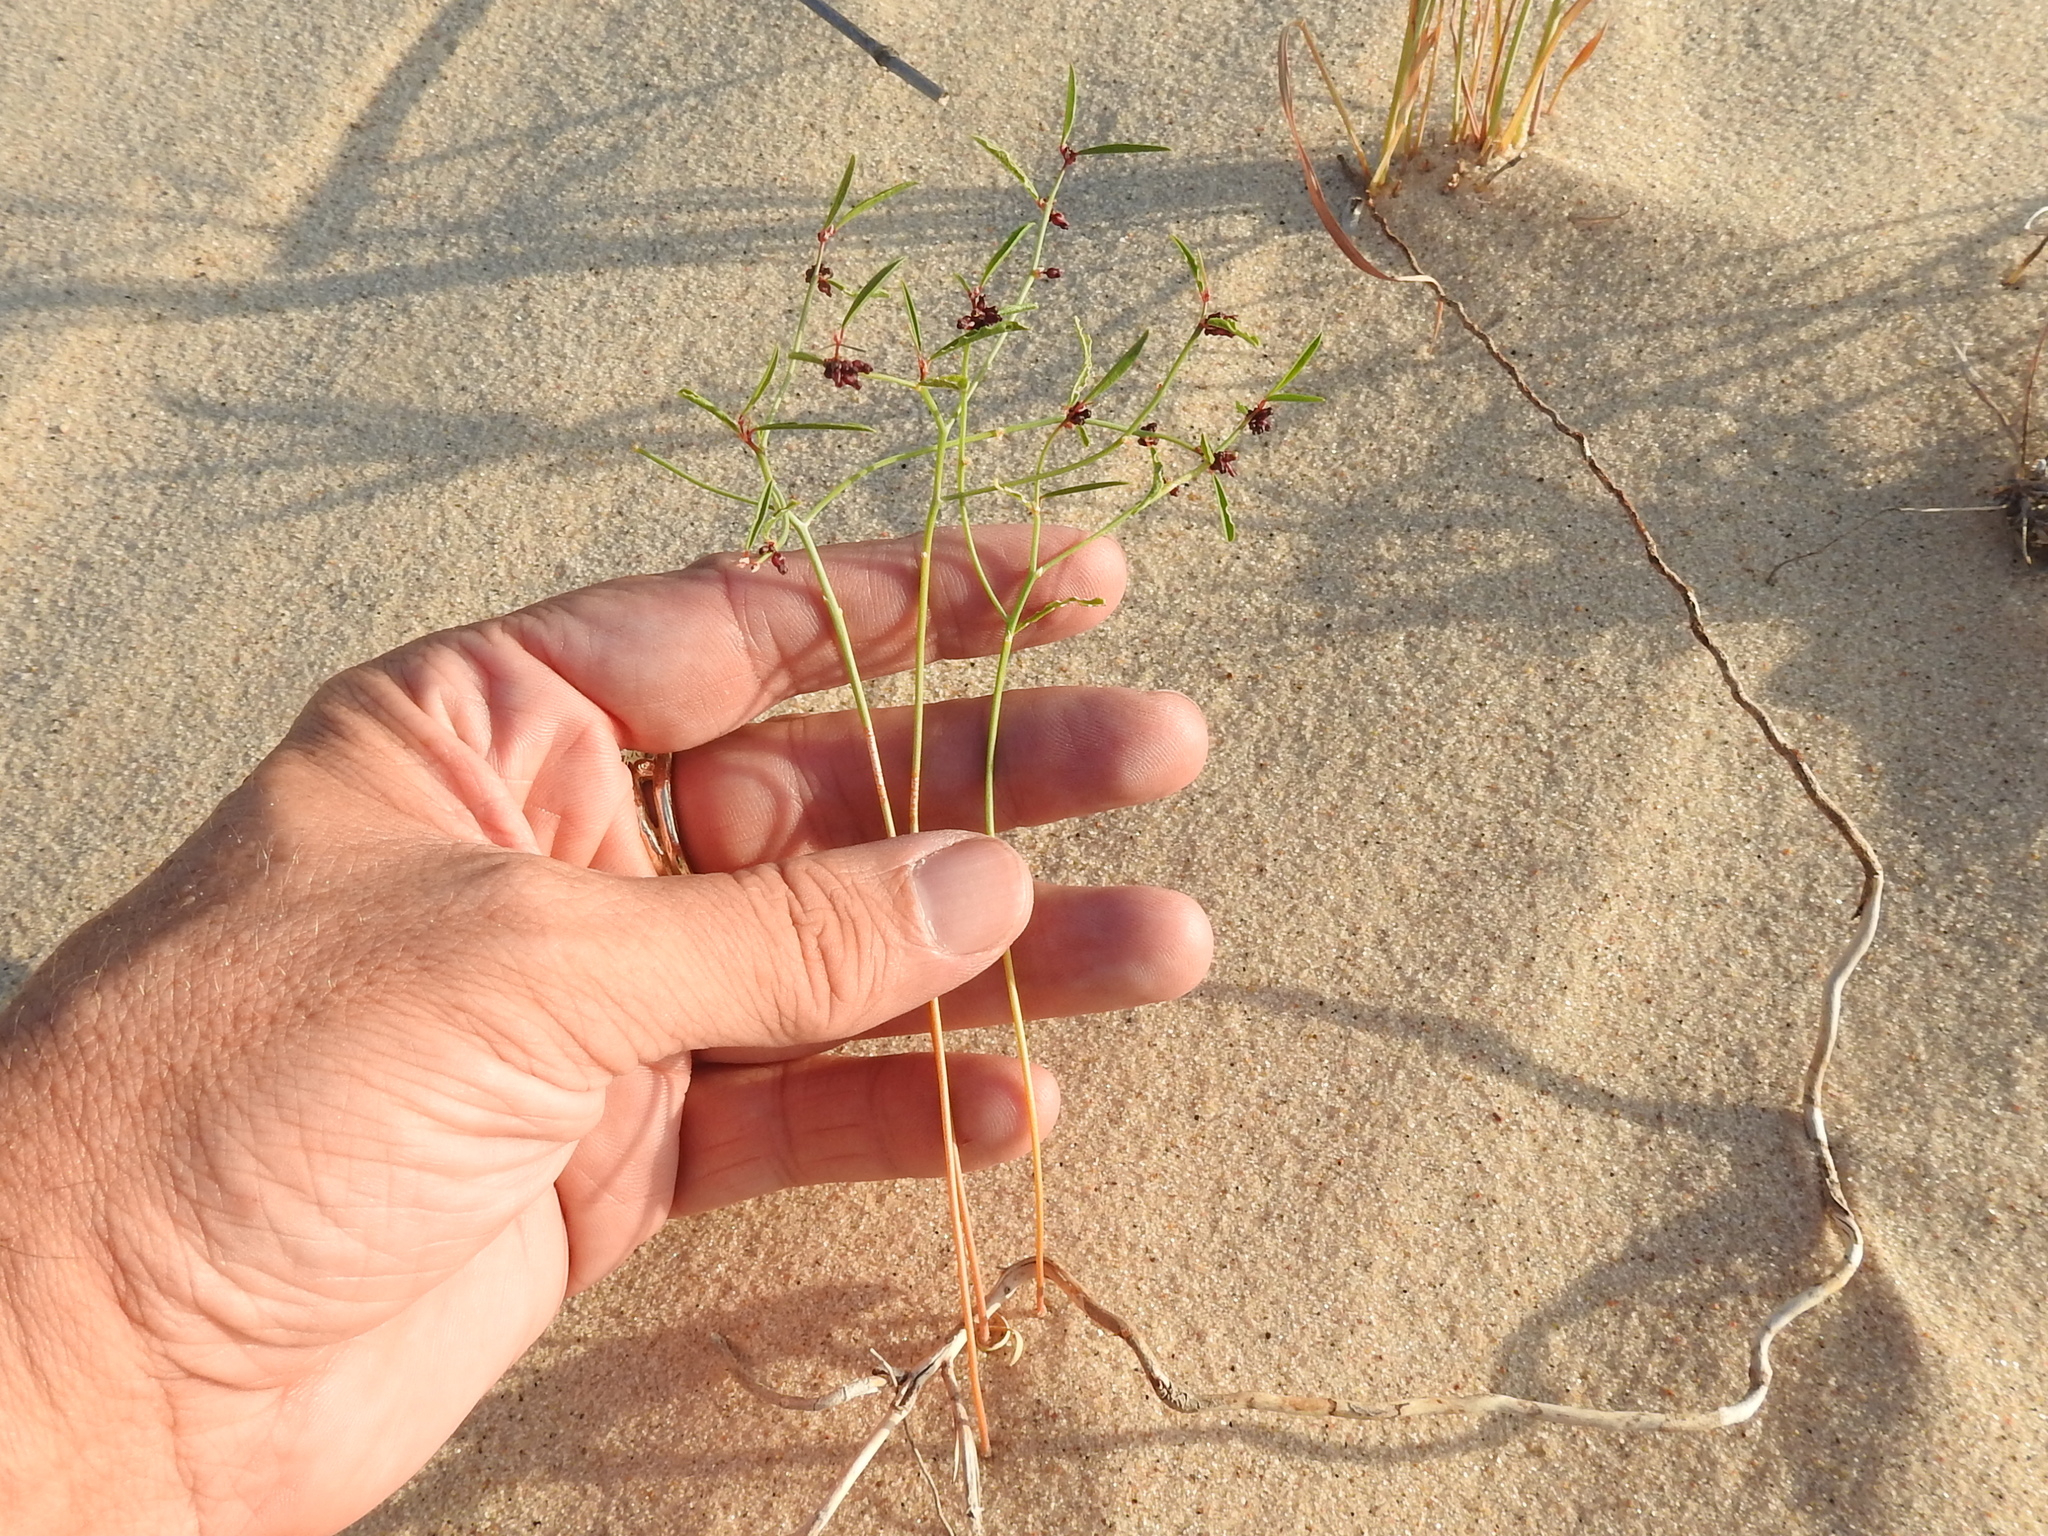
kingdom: Plantae
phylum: Tracheophyta
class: Magnoliopsida
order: Malpighiales
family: Phyllanthaceae
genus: Phyllanthus
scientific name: Phyllanthus warnockii
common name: Sand reverchonia
